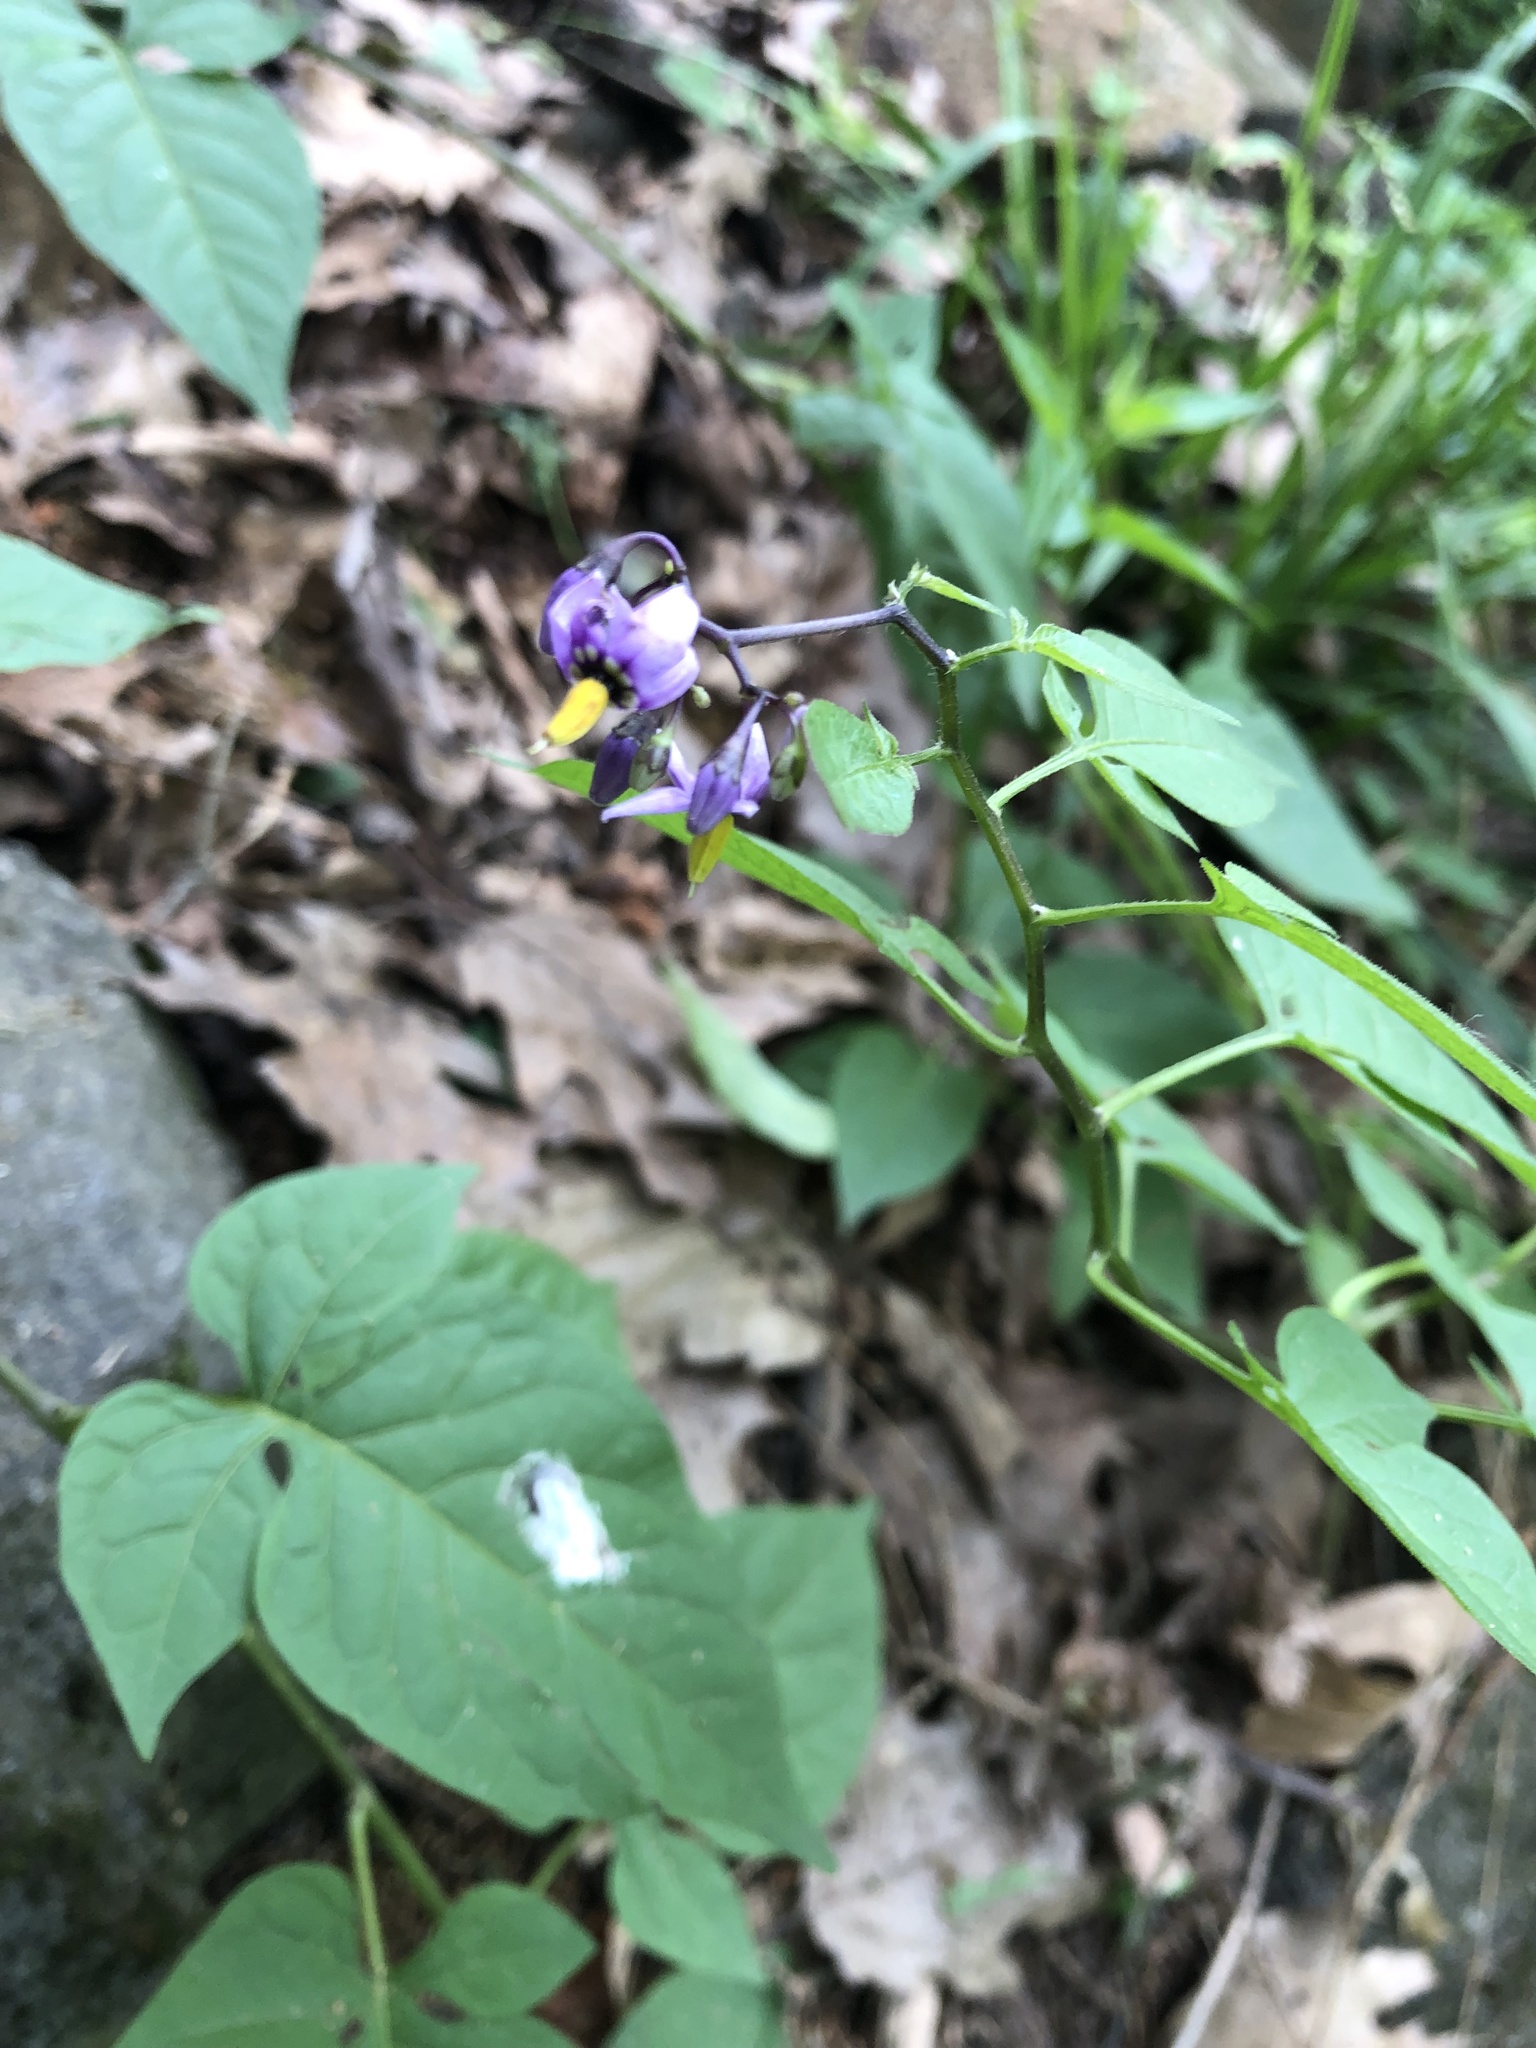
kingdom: Plantae
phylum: Tracheophyta
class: Magnoliopsida
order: Solanales
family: Solanaceae
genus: Solanum
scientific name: Solanum dulcamara
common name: Climbing nightshade
